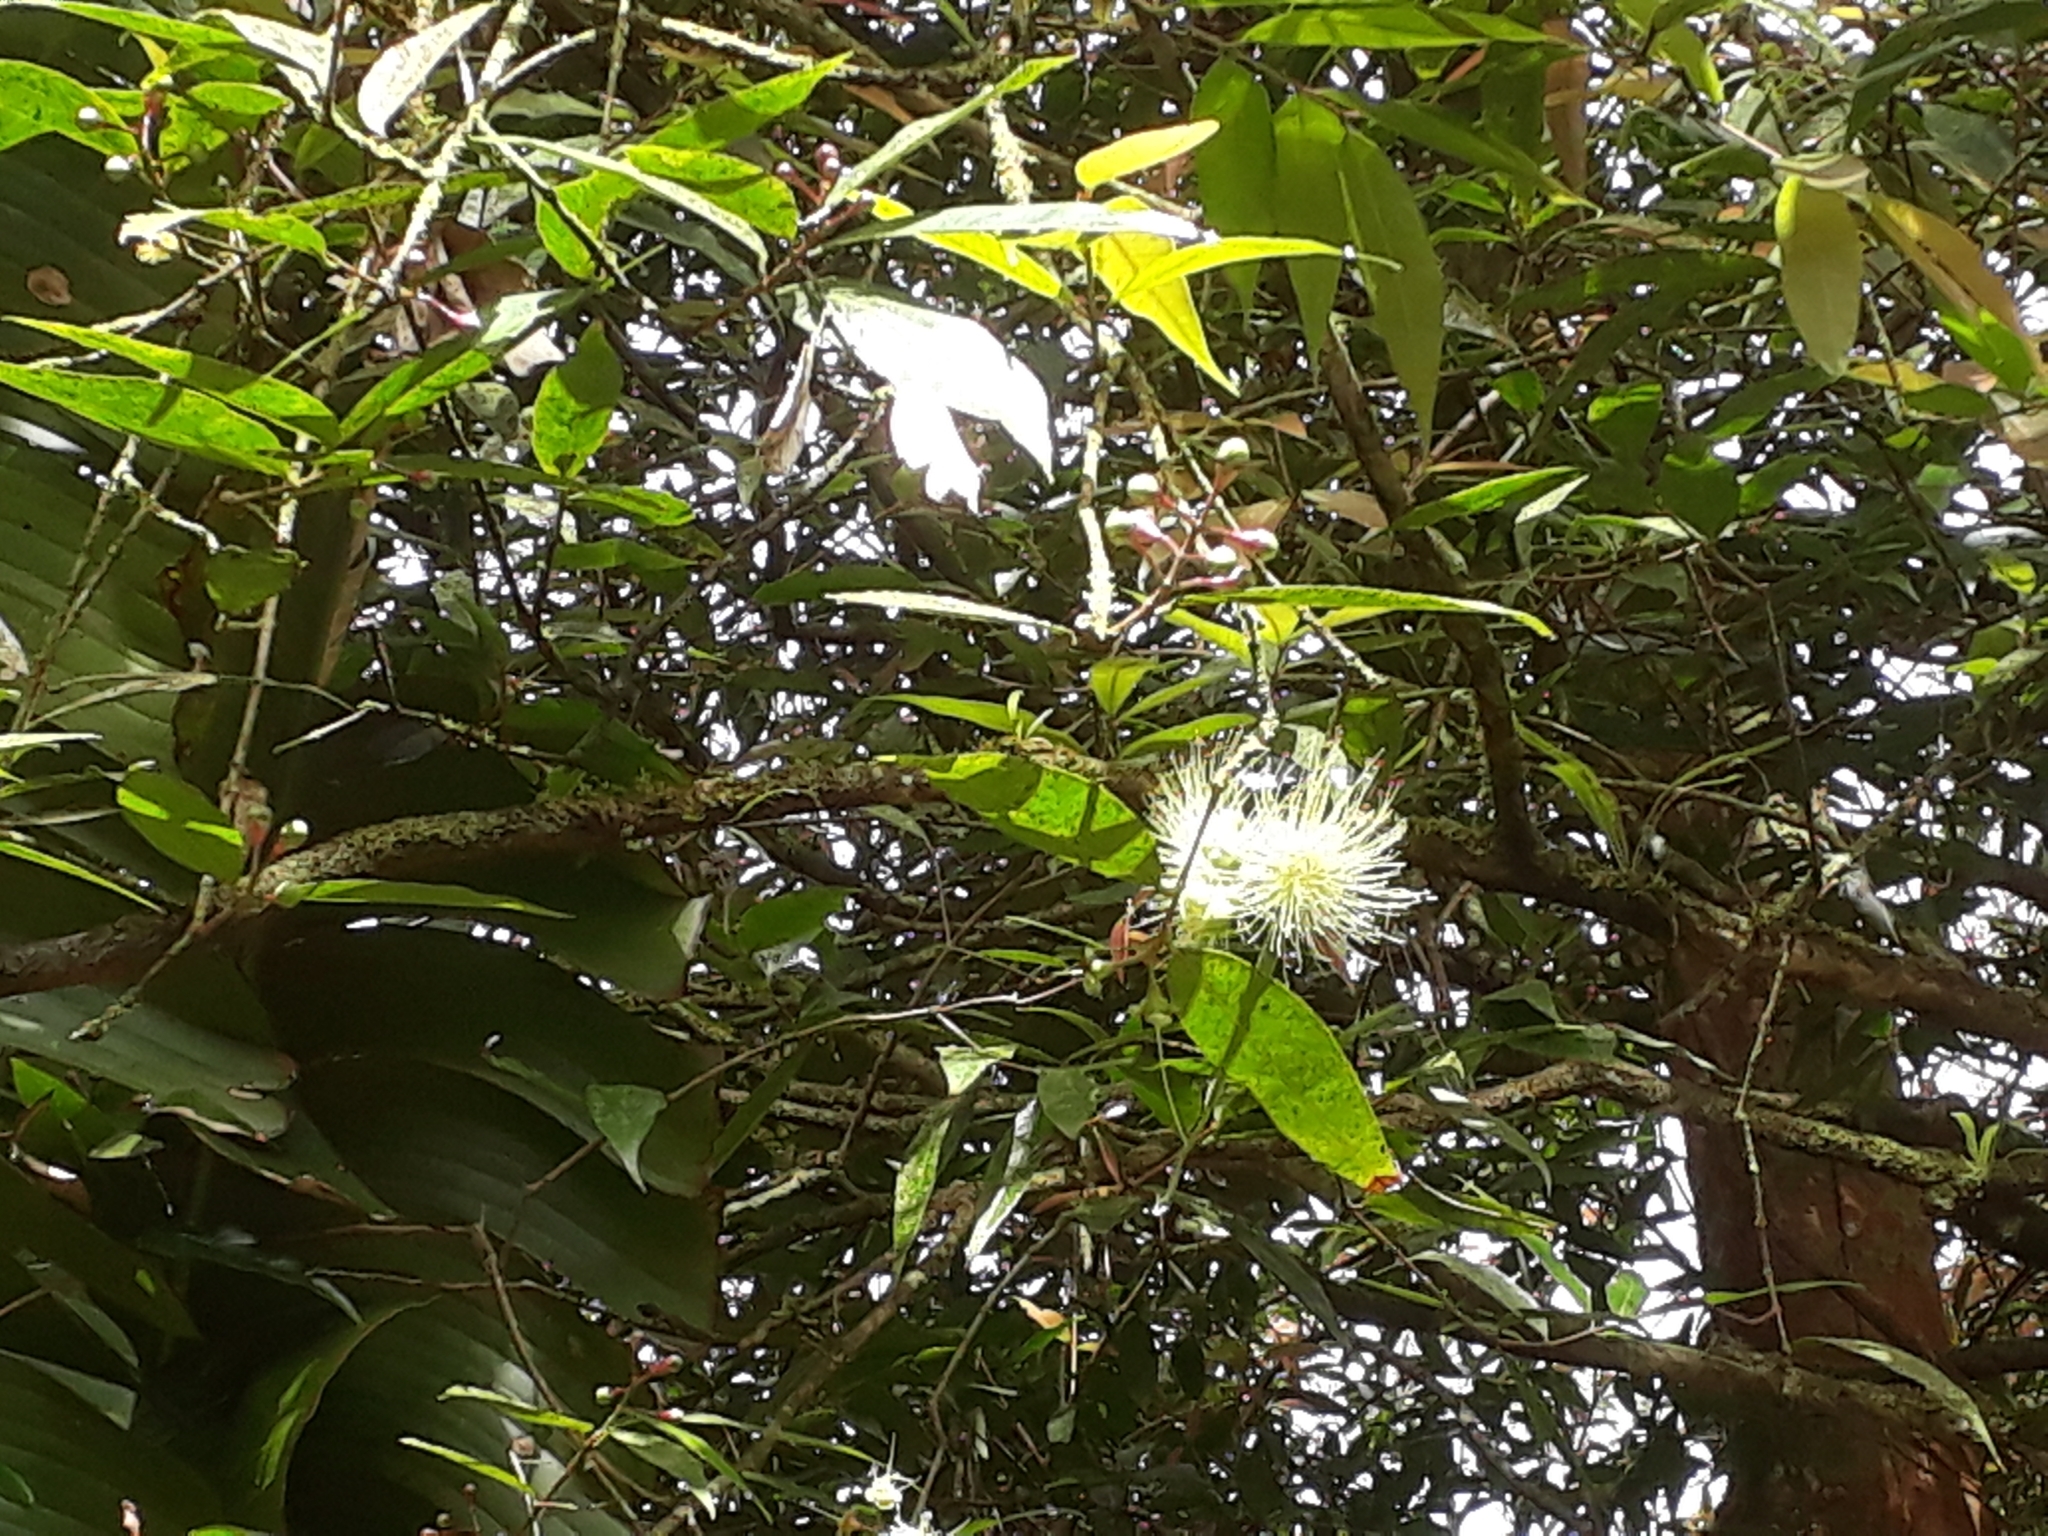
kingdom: Plantae
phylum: Tracheophyta
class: Magnoliopsida
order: Myrtales
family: Myrtaceae
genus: Syzygium
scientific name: Syzygium jambos
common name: Malabar plum
